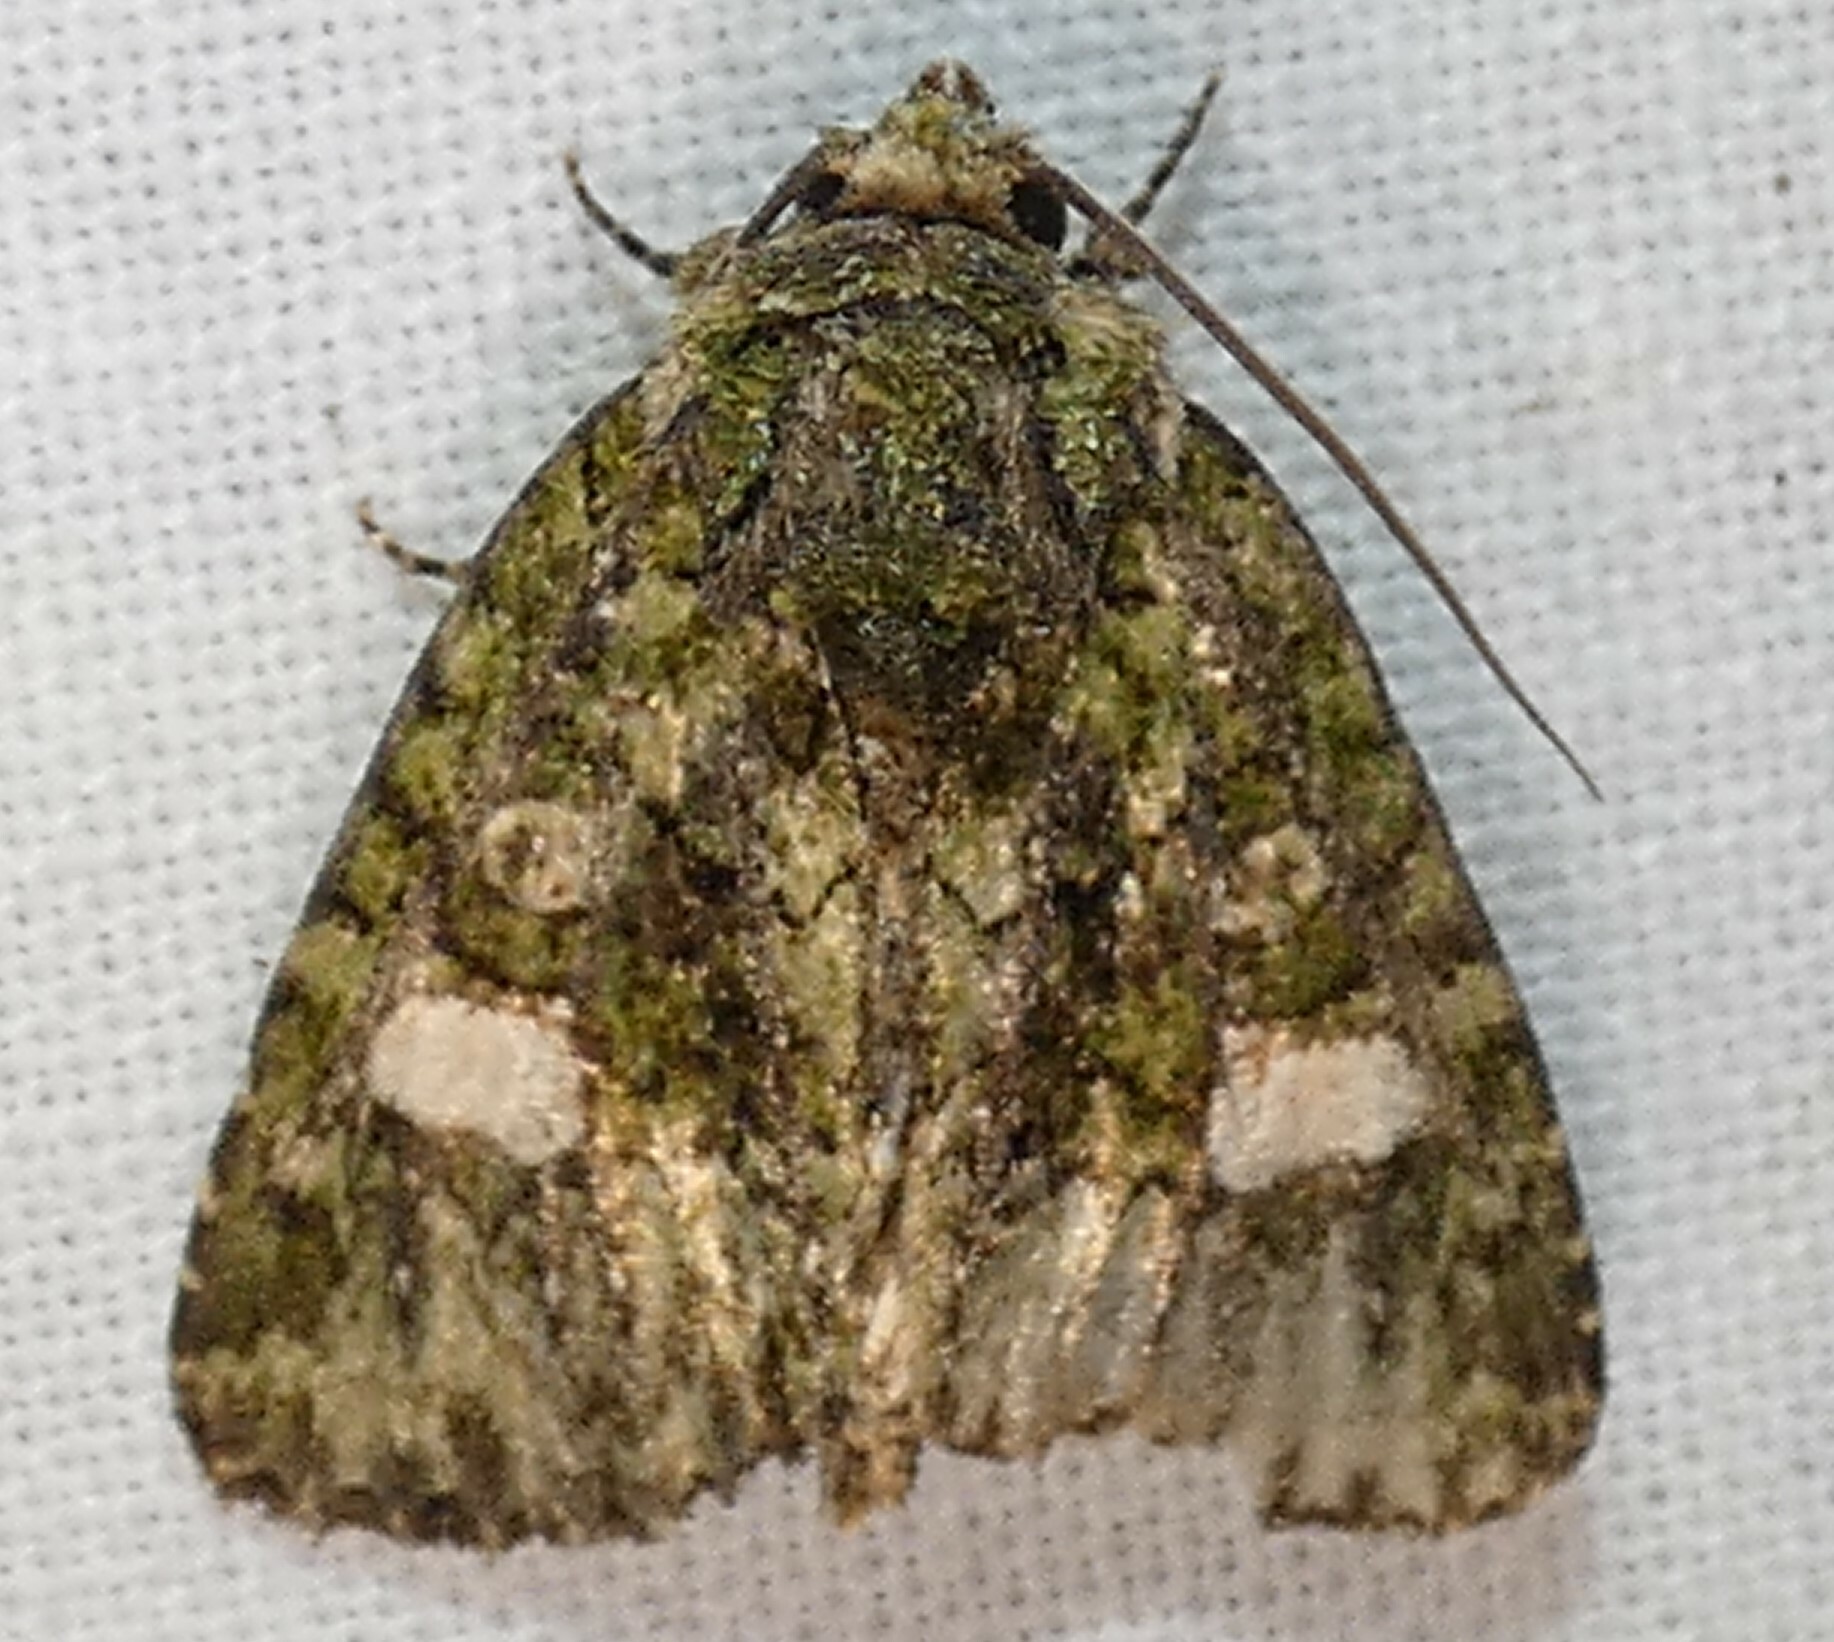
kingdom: Animalia
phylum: Arthropoda
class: Insecta
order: Lepidoptera
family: Noctuidae
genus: Phosphila
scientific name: Phosphila miselioides
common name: Spotted phosphila moth
